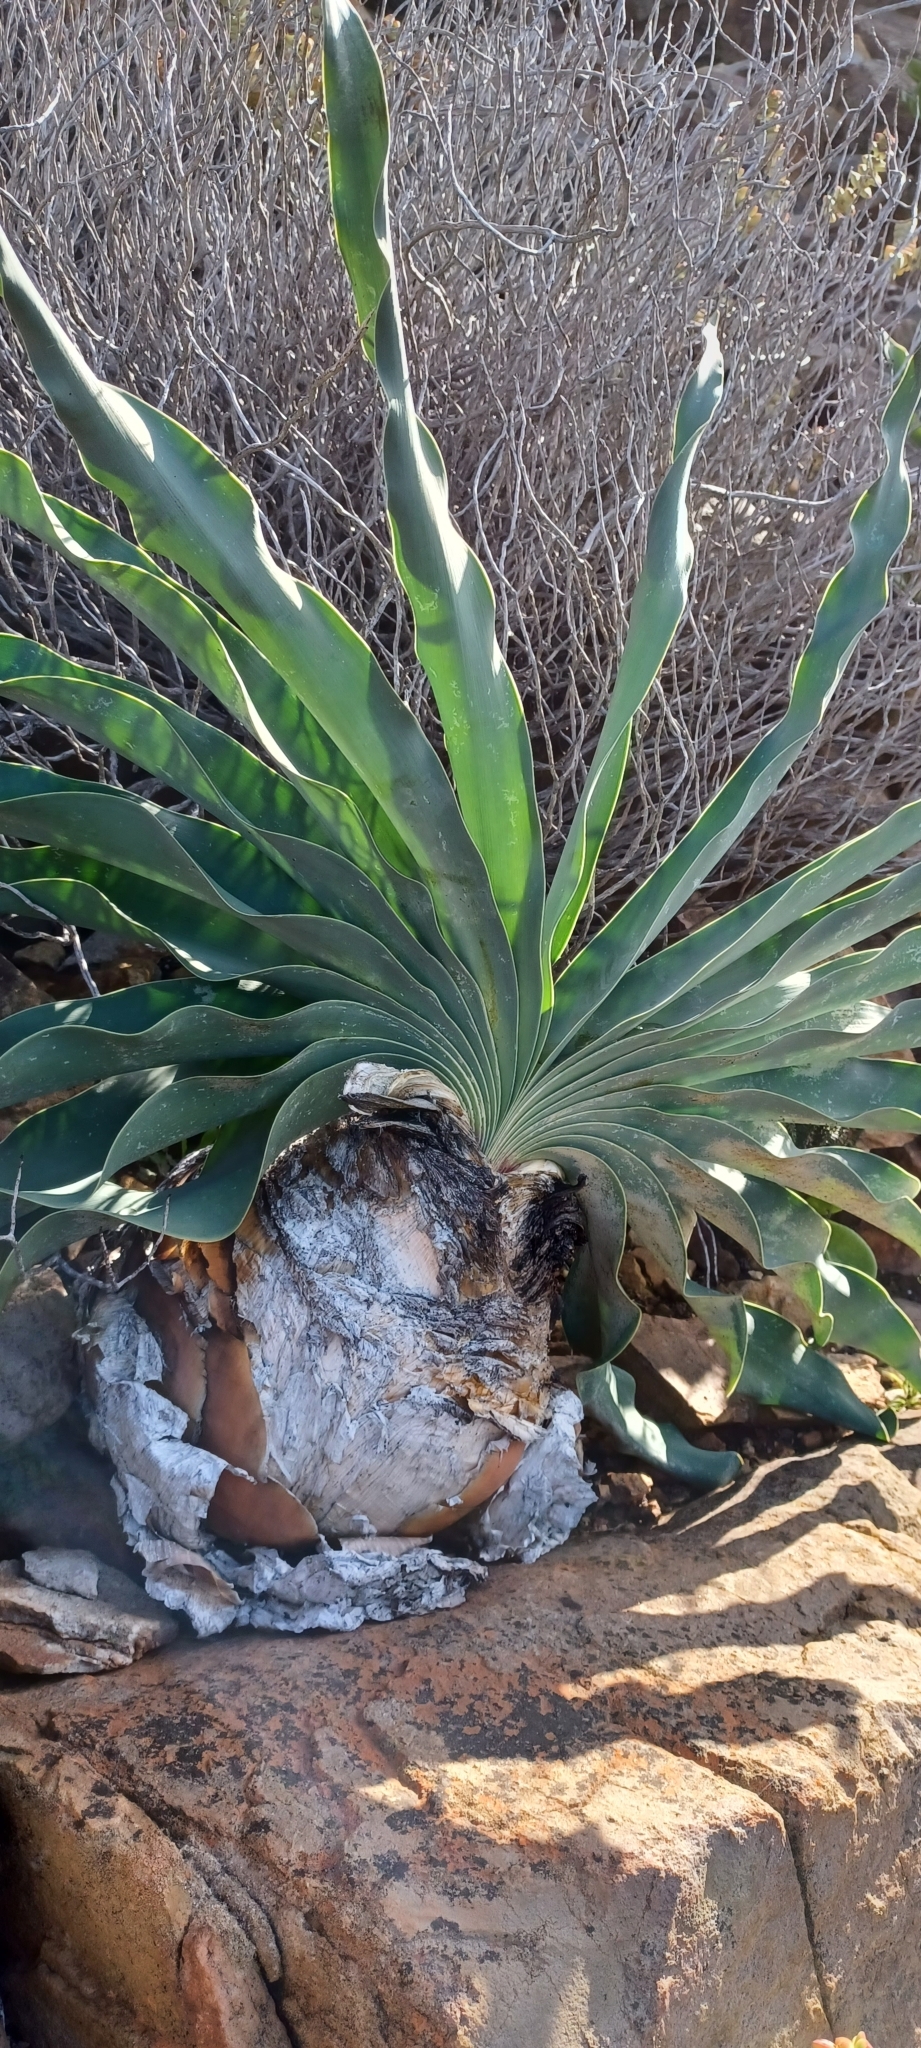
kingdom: Plantae
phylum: Tracheophyta
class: Liliopsida
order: Asparagales
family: Amaryllidaceae
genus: Boophone
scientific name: Boophone disticha
